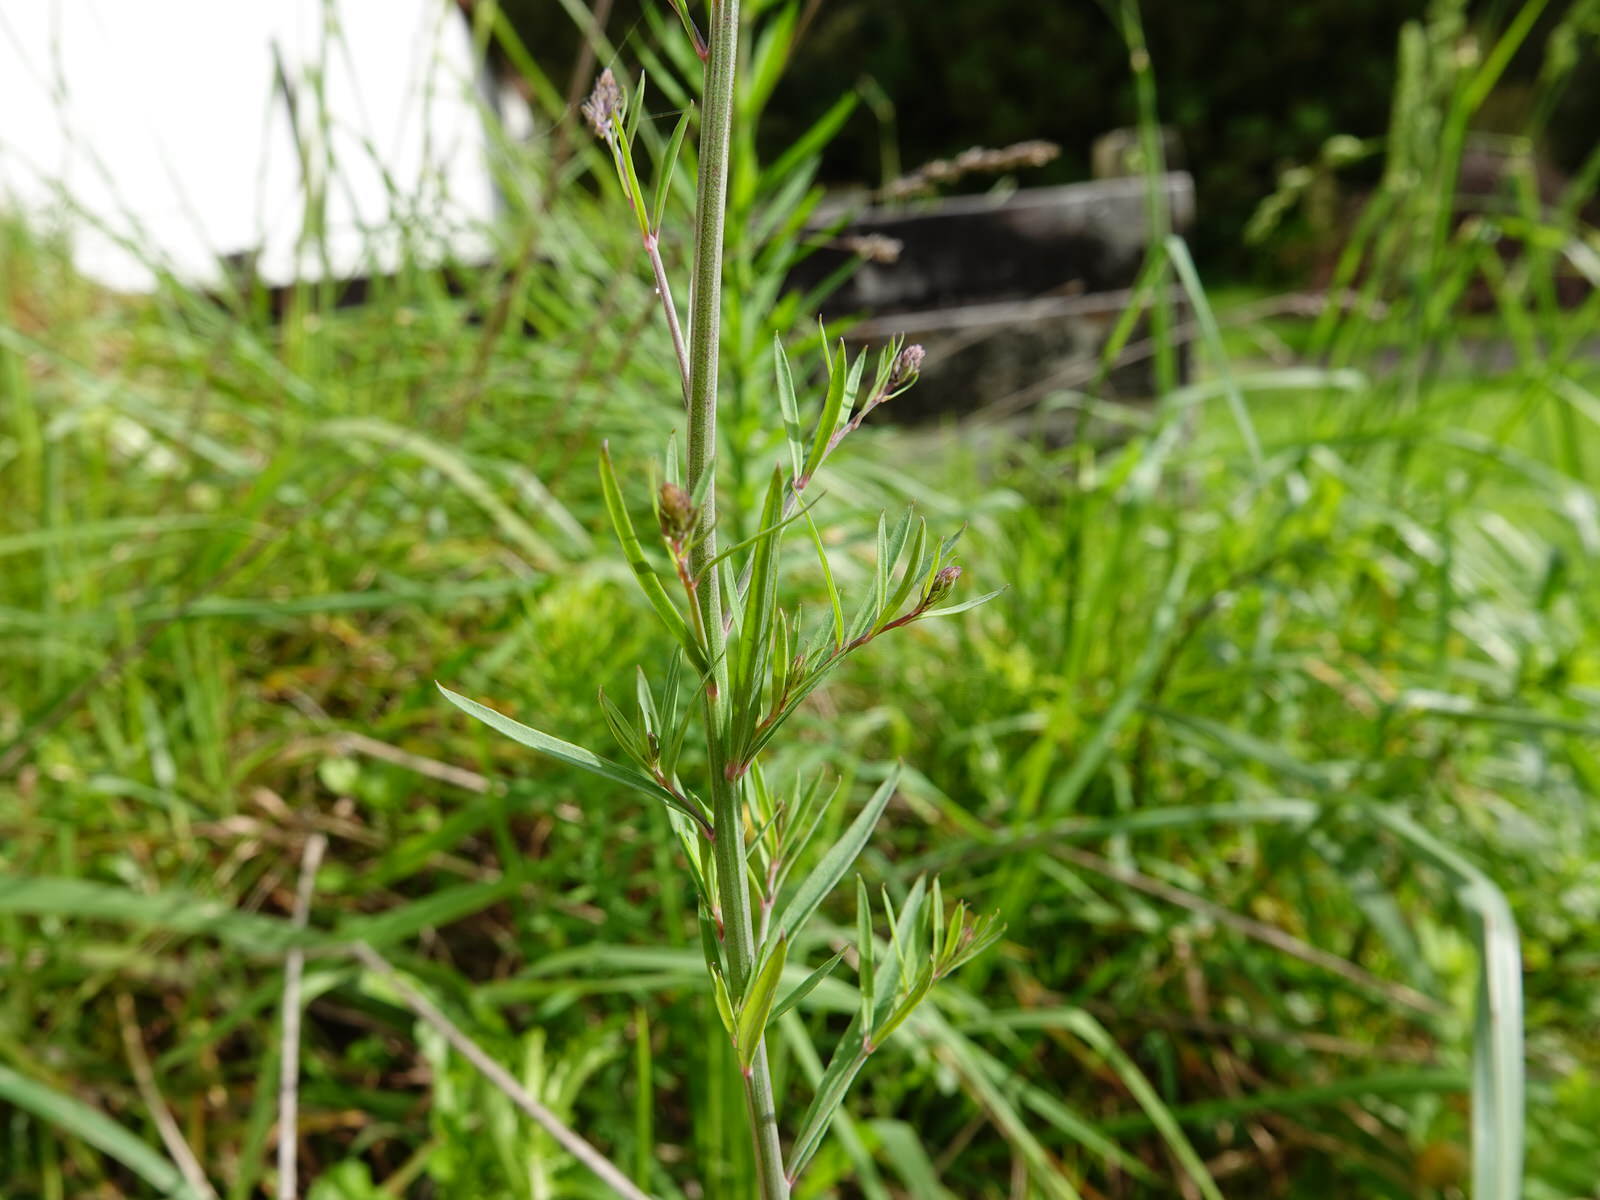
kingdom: Plantae
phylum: Tracheophyta
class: Magnoliopsida
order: Lamiales
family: Plantaginaceae
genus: Linaria
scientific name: Linaria dominii
